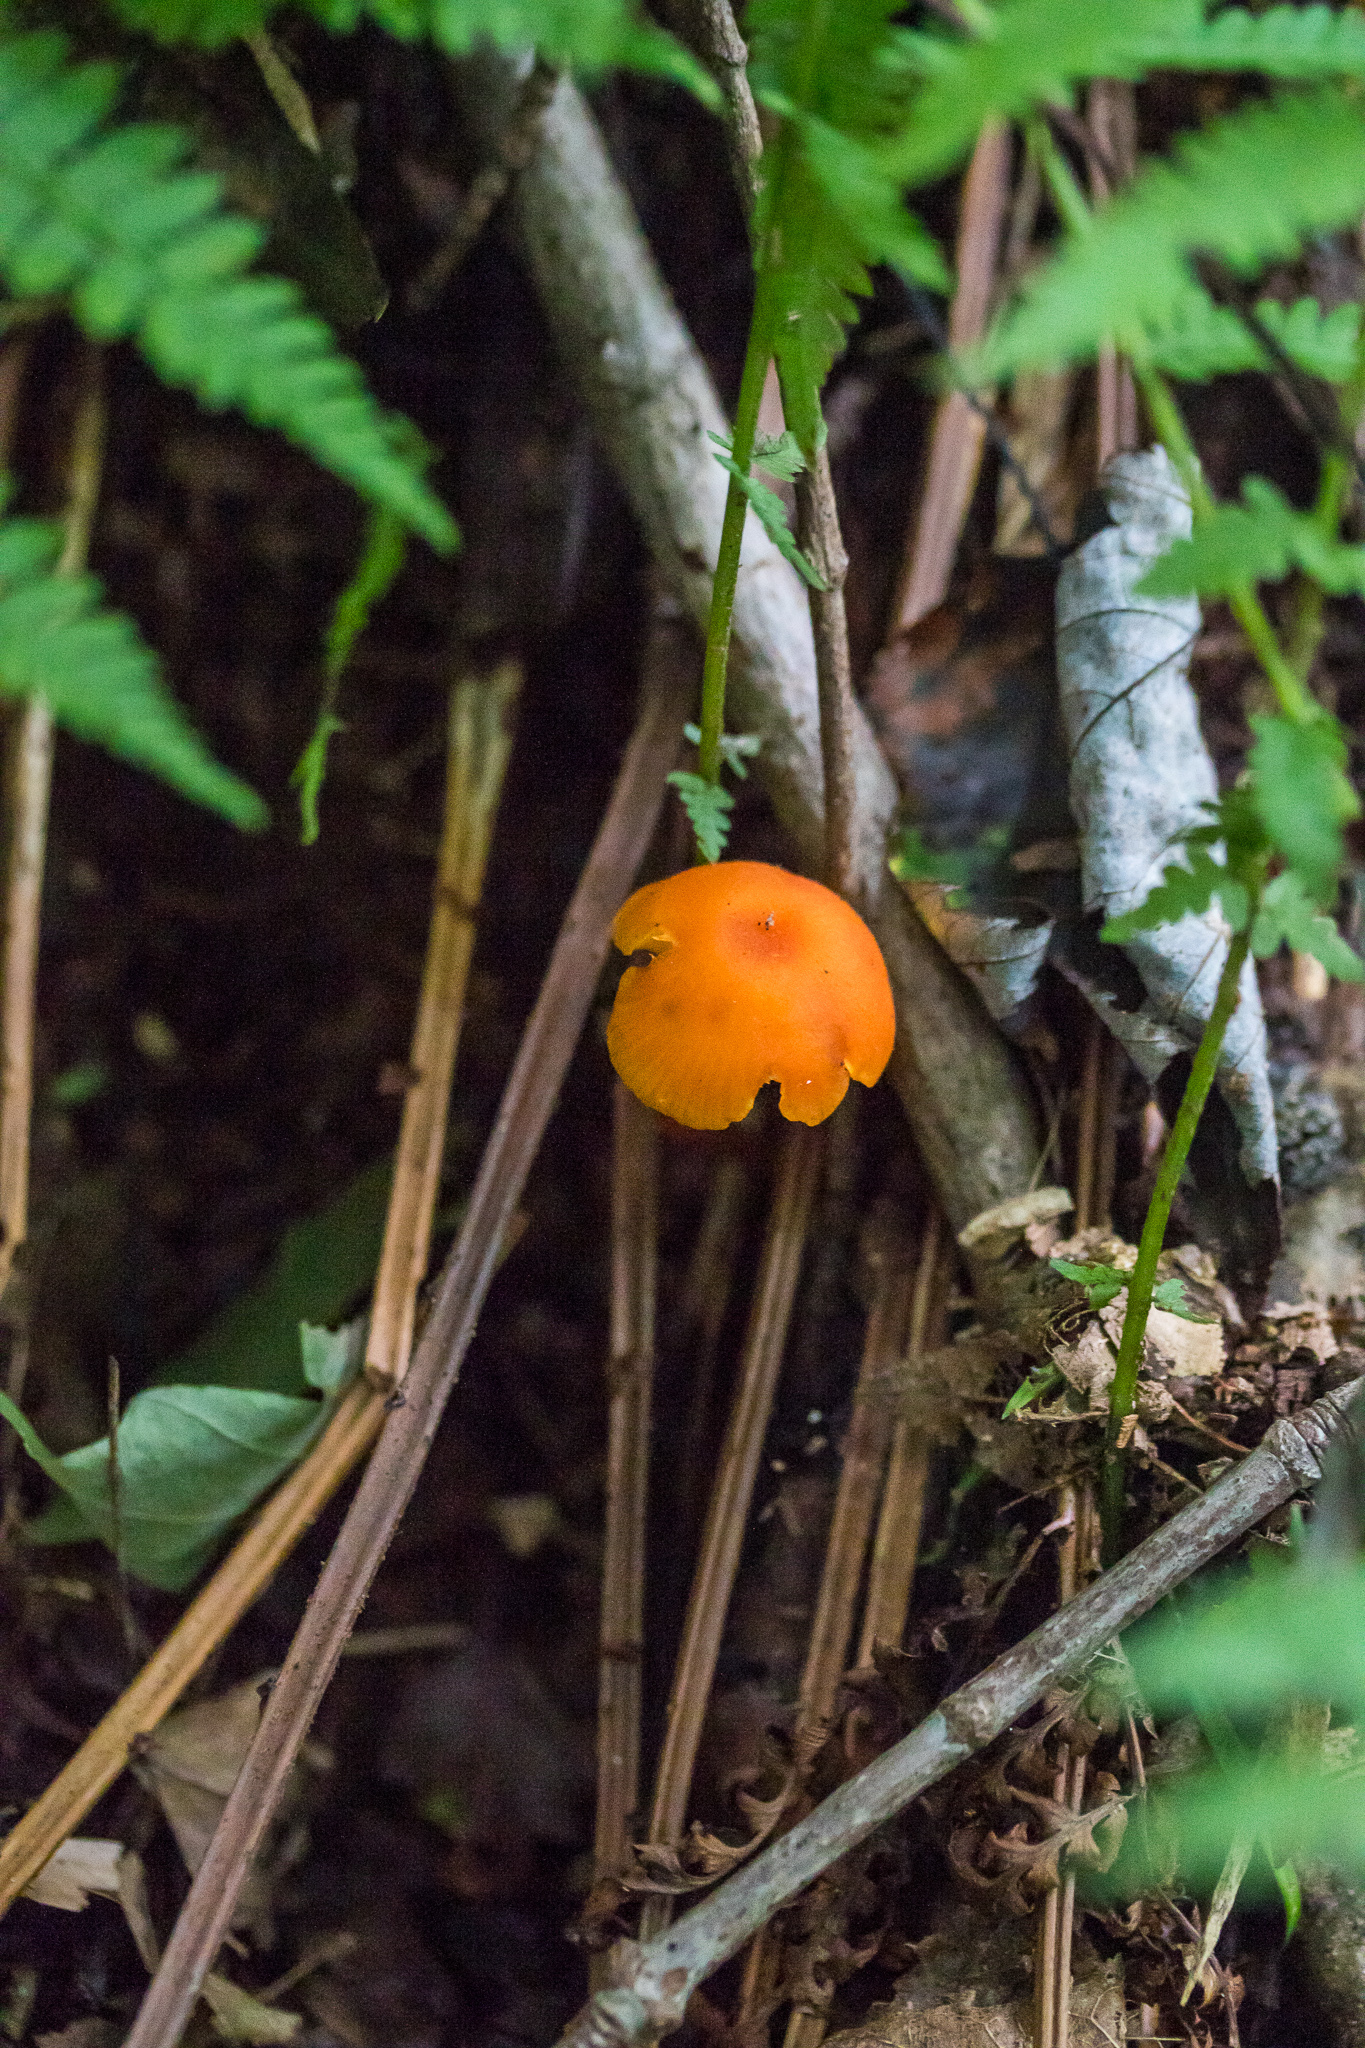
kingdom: Fungi
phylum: Basidiomycota
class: Agaricomycetes
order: Agaricales
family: Hygrophoraceae
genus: Hygrocybe
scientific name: Hygrocybe miniata
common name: Vermilion waxcap
